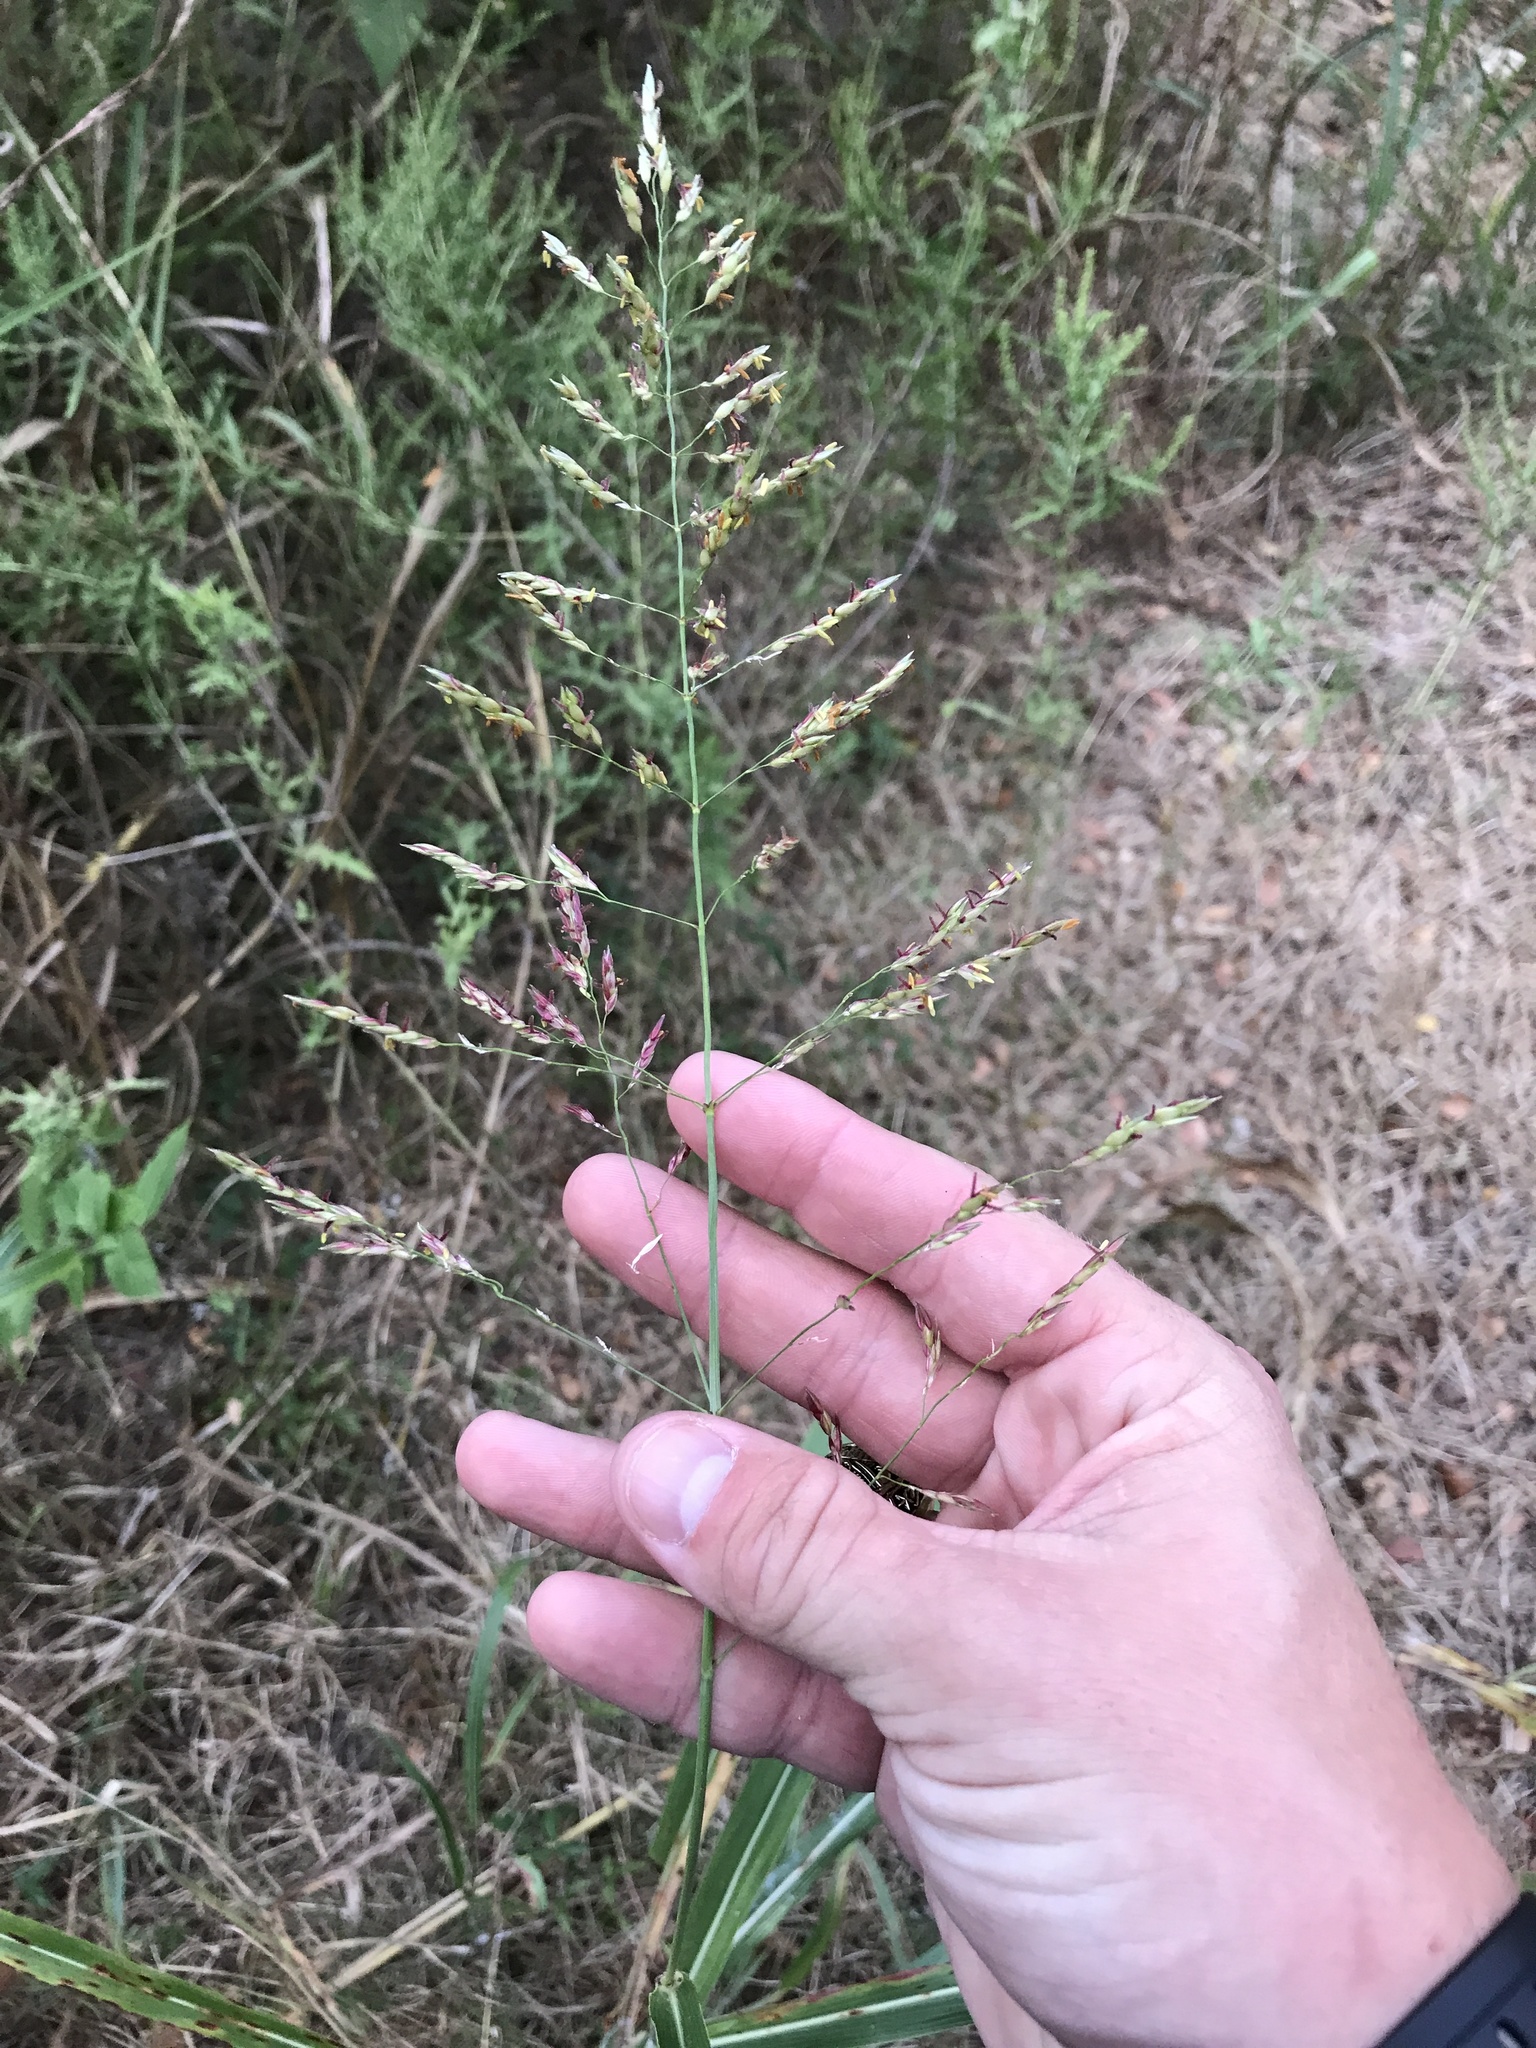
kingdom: Plantae
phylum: Tracheophyta
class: Liliopsida
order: Poales
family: Poaceae
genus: Sorghum
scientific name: Sorghum halepense
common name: Johnson-grass
